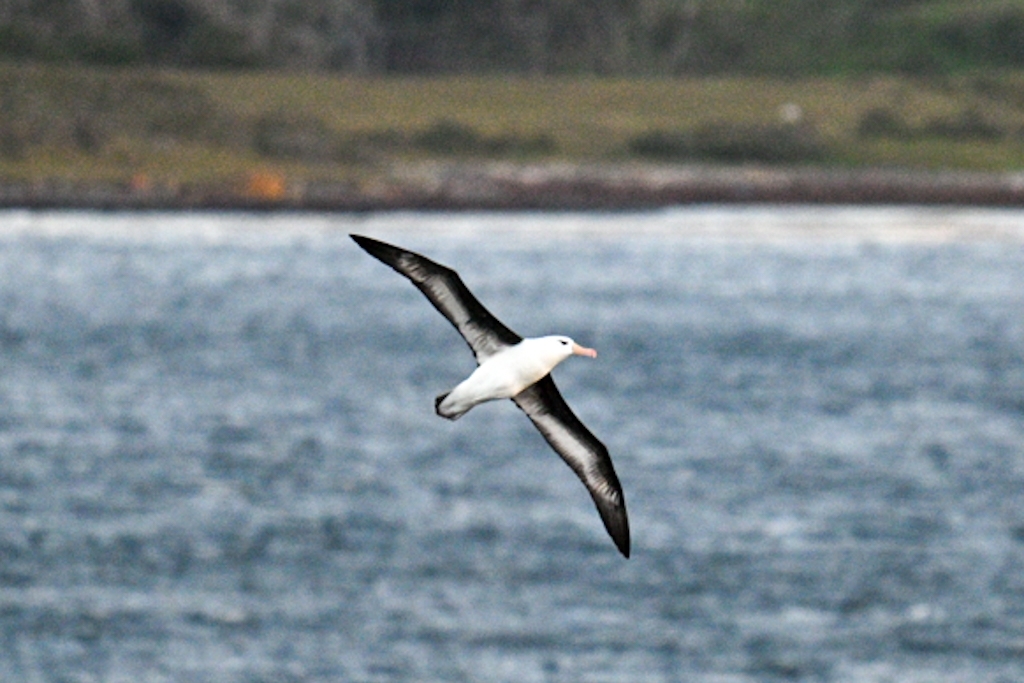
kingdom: Animalia
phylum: Chordata
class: Aves
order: Procellariiformes
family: Diomedeidae
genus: Thalassarche
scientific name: Thalassarche melanophris
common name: Black-browed albatross
